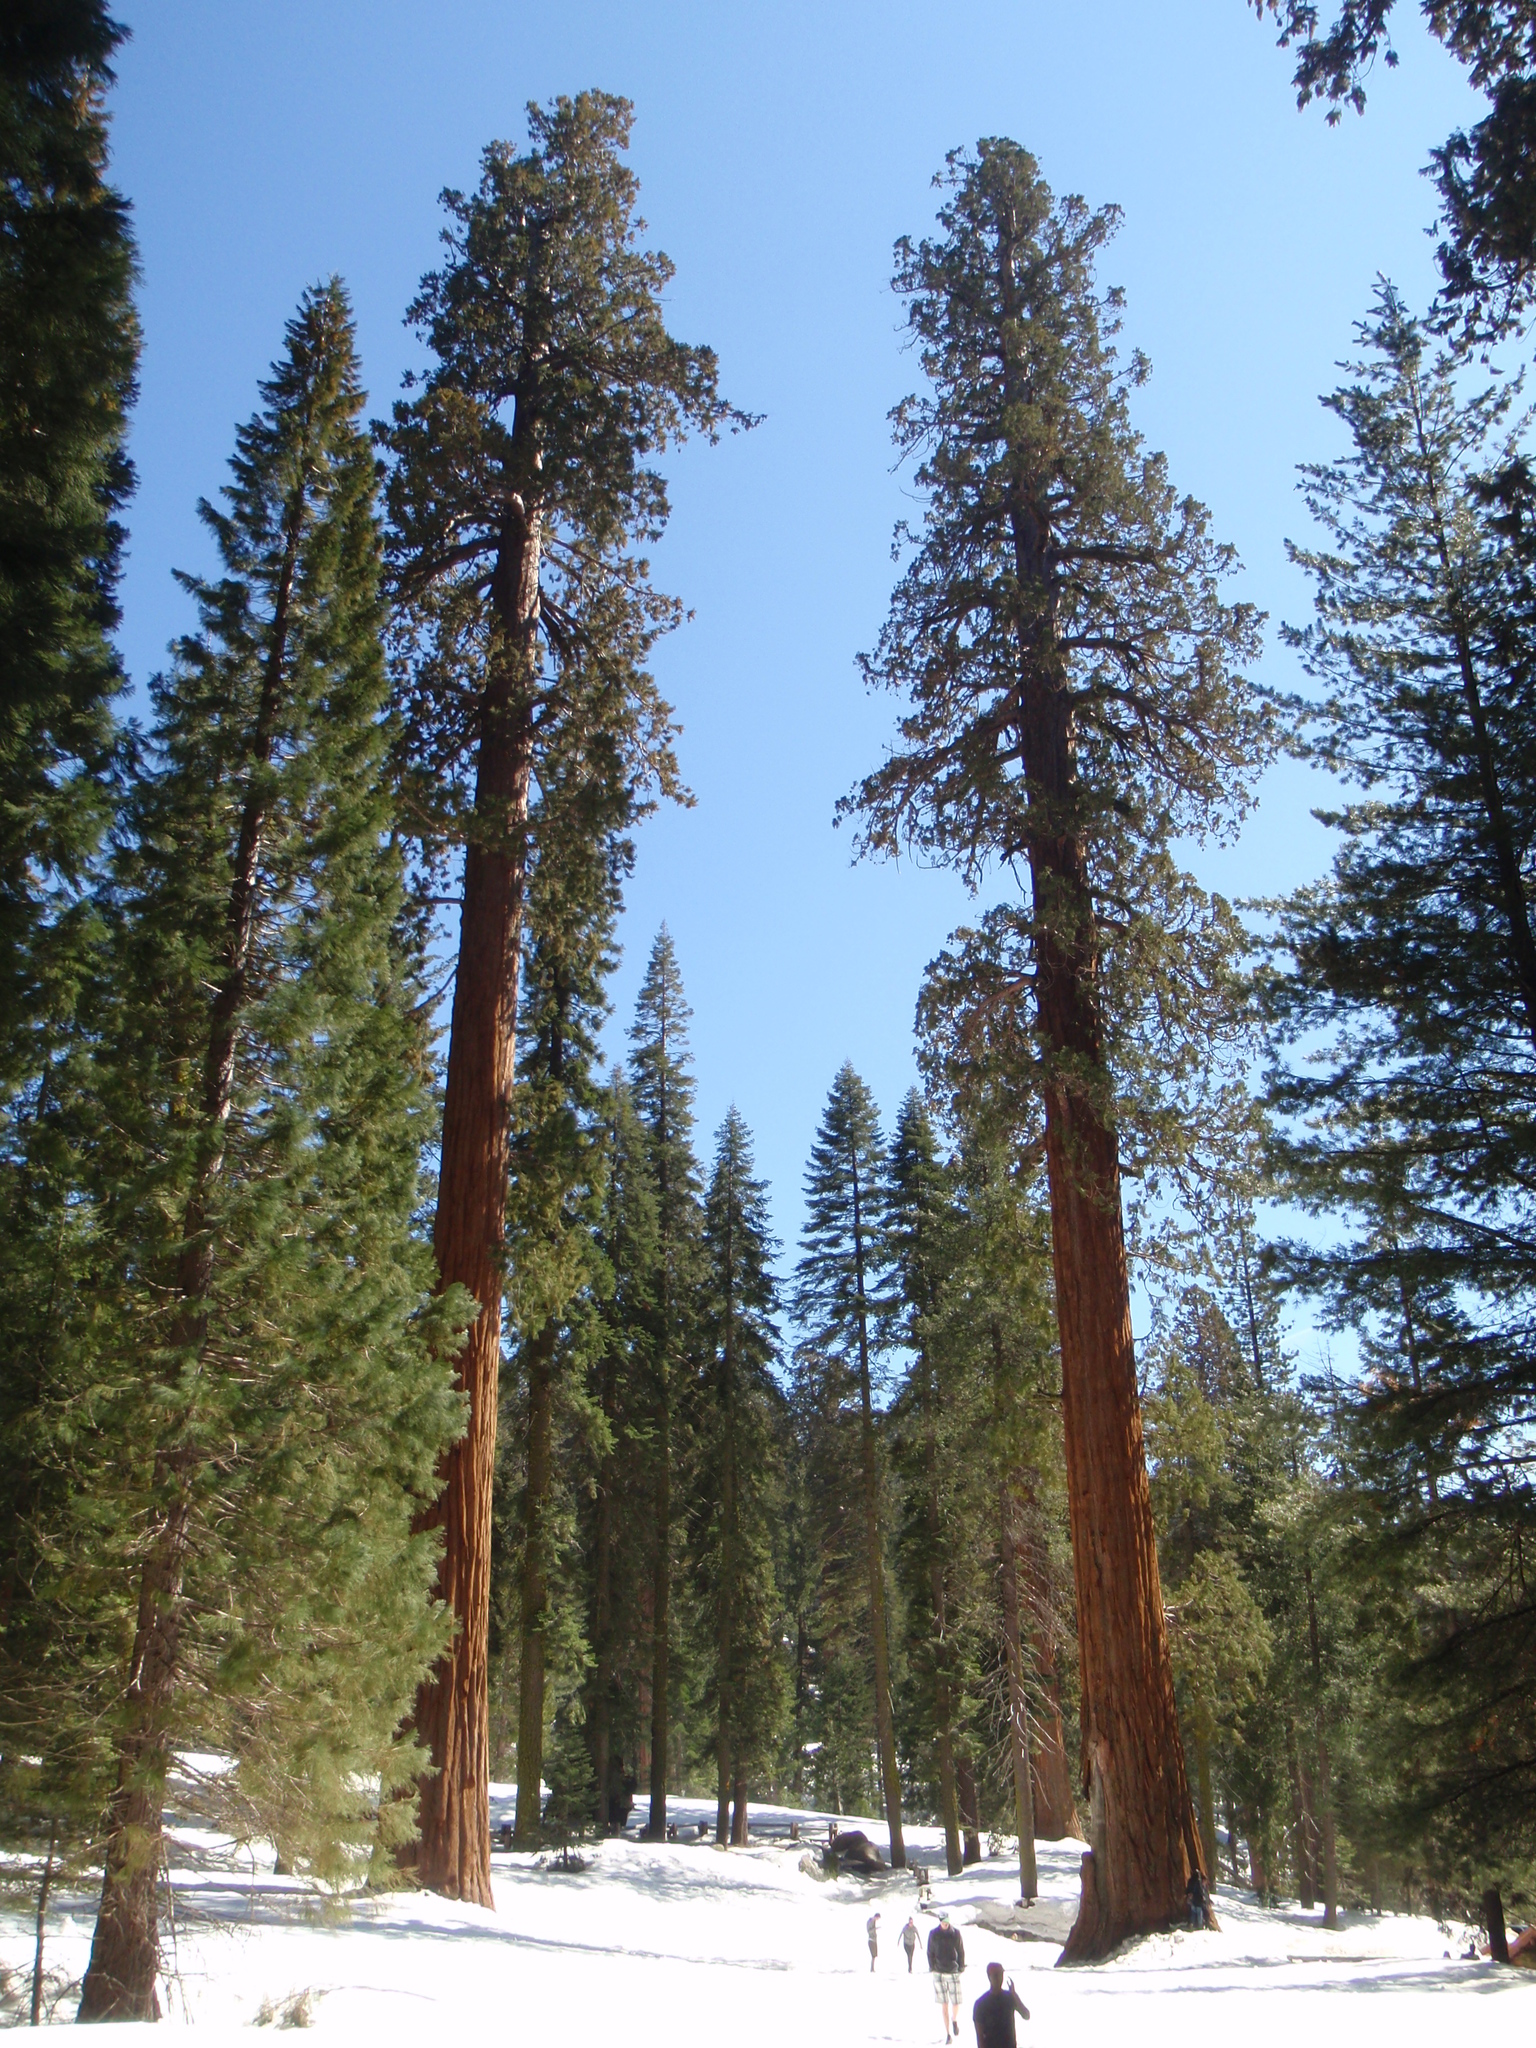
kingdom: Plantae
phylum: Tracheophyta
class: Pinopsida
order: Pinales
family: Cupressaceae
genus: Sequoiadendron
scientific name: Sequoiadendron giganteum
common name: Wellingtonia
